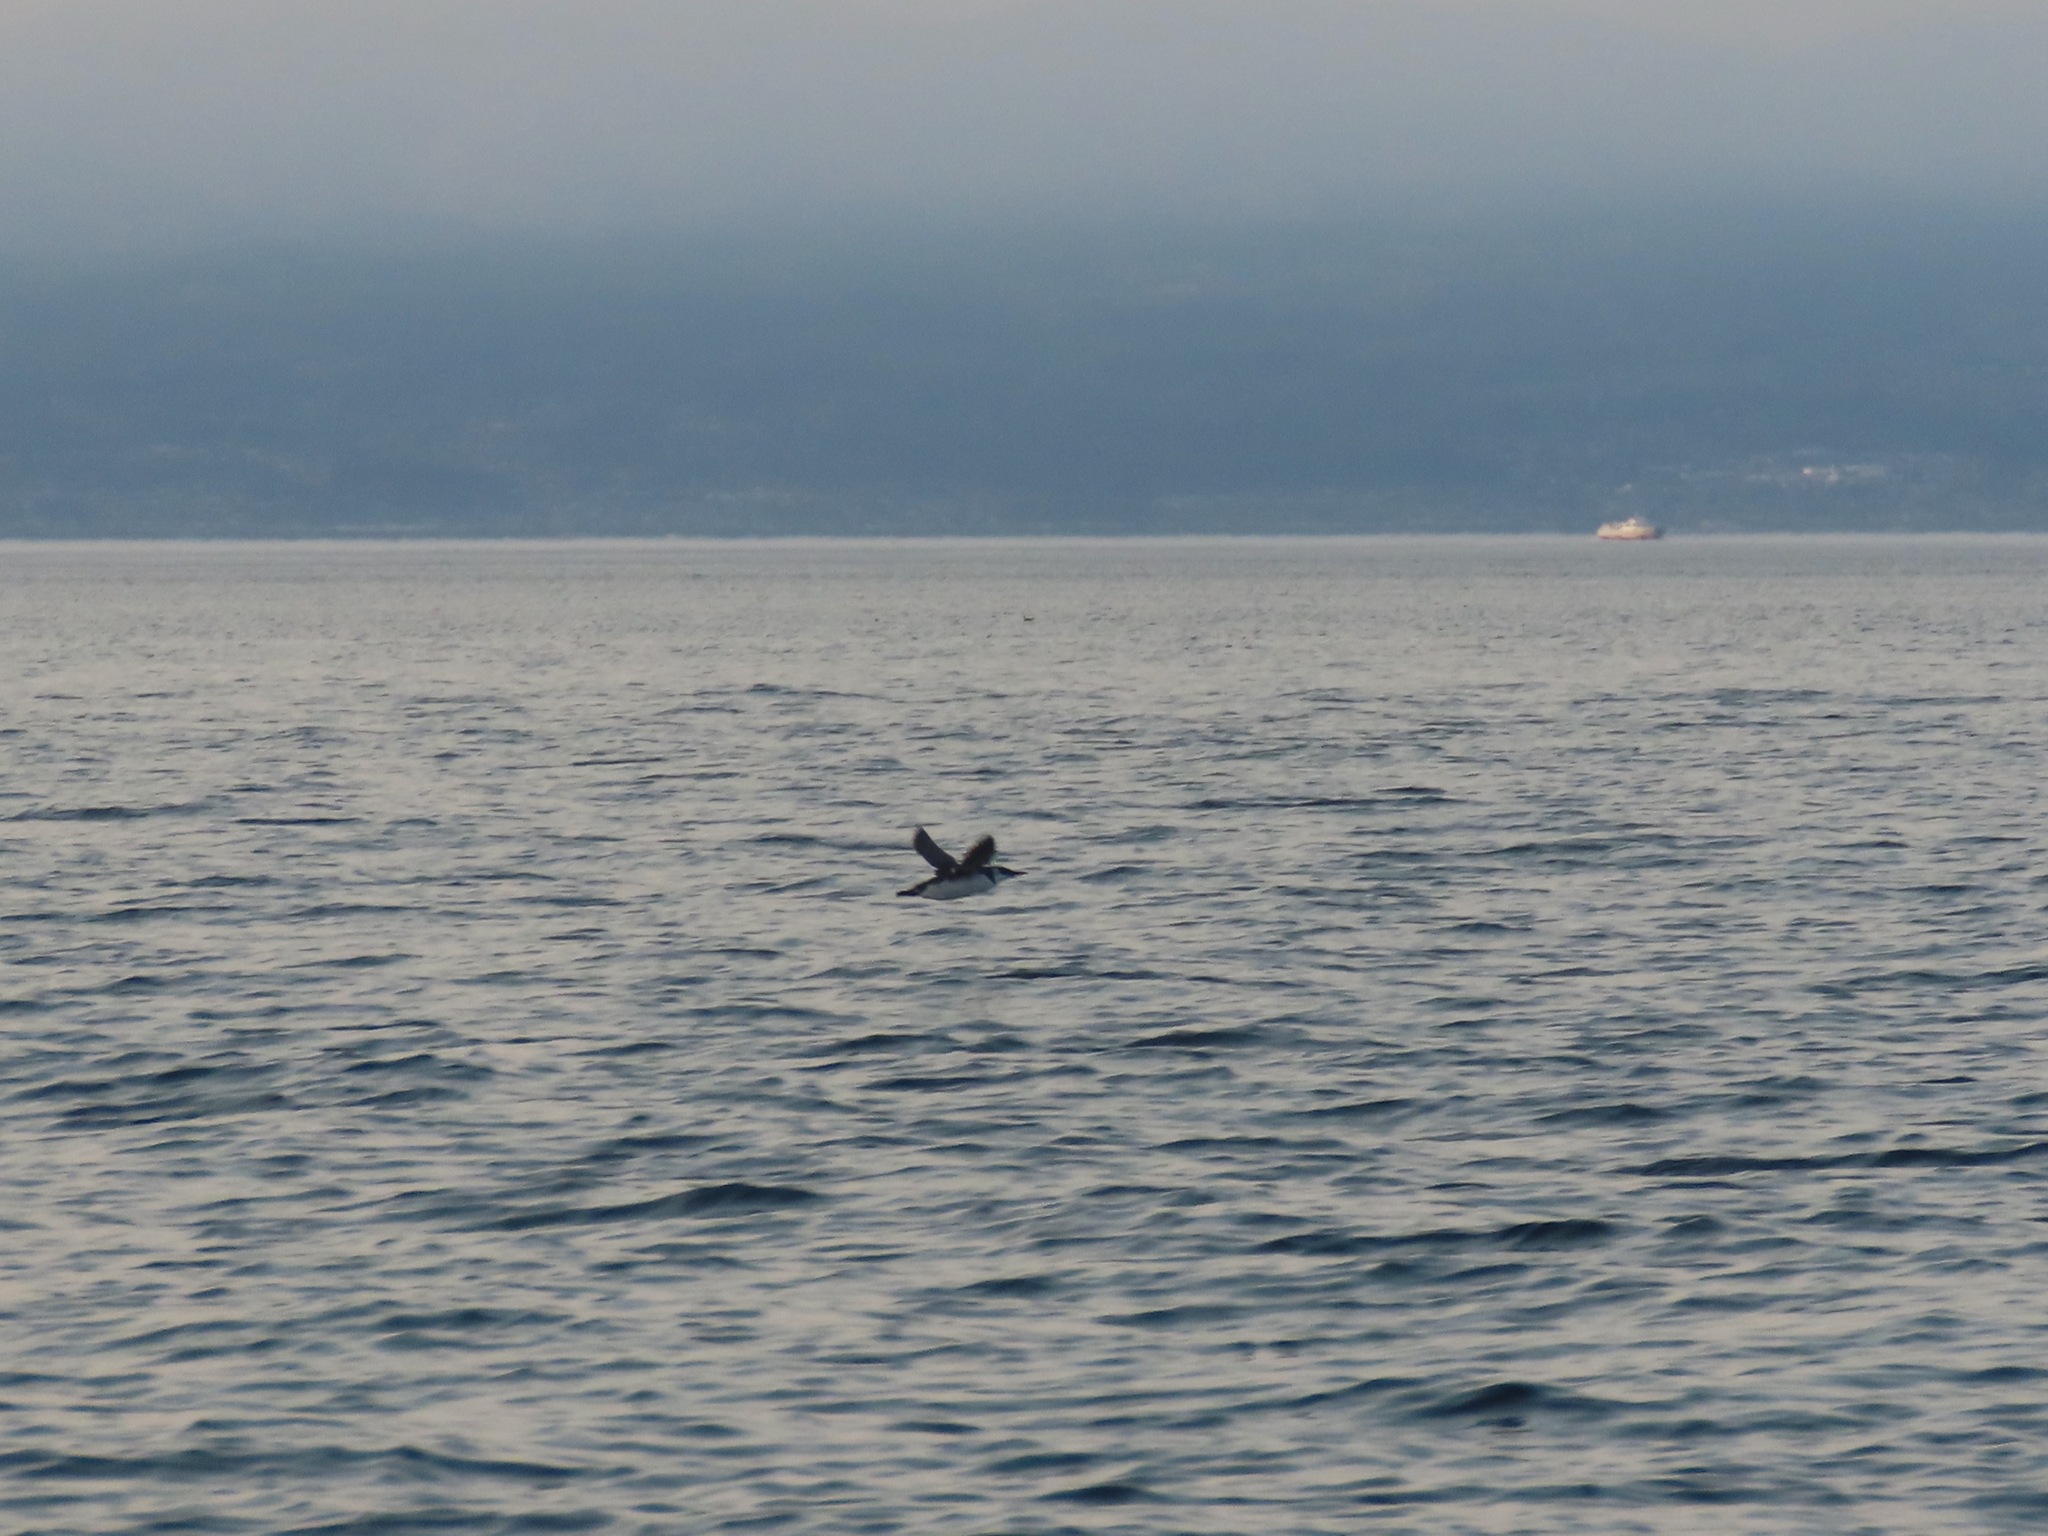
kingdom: Animalia
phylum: Chordata
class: Aves
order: Charadriiformes
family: Alcidae
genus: Uria
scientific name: Uria aalge
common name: Common murre
